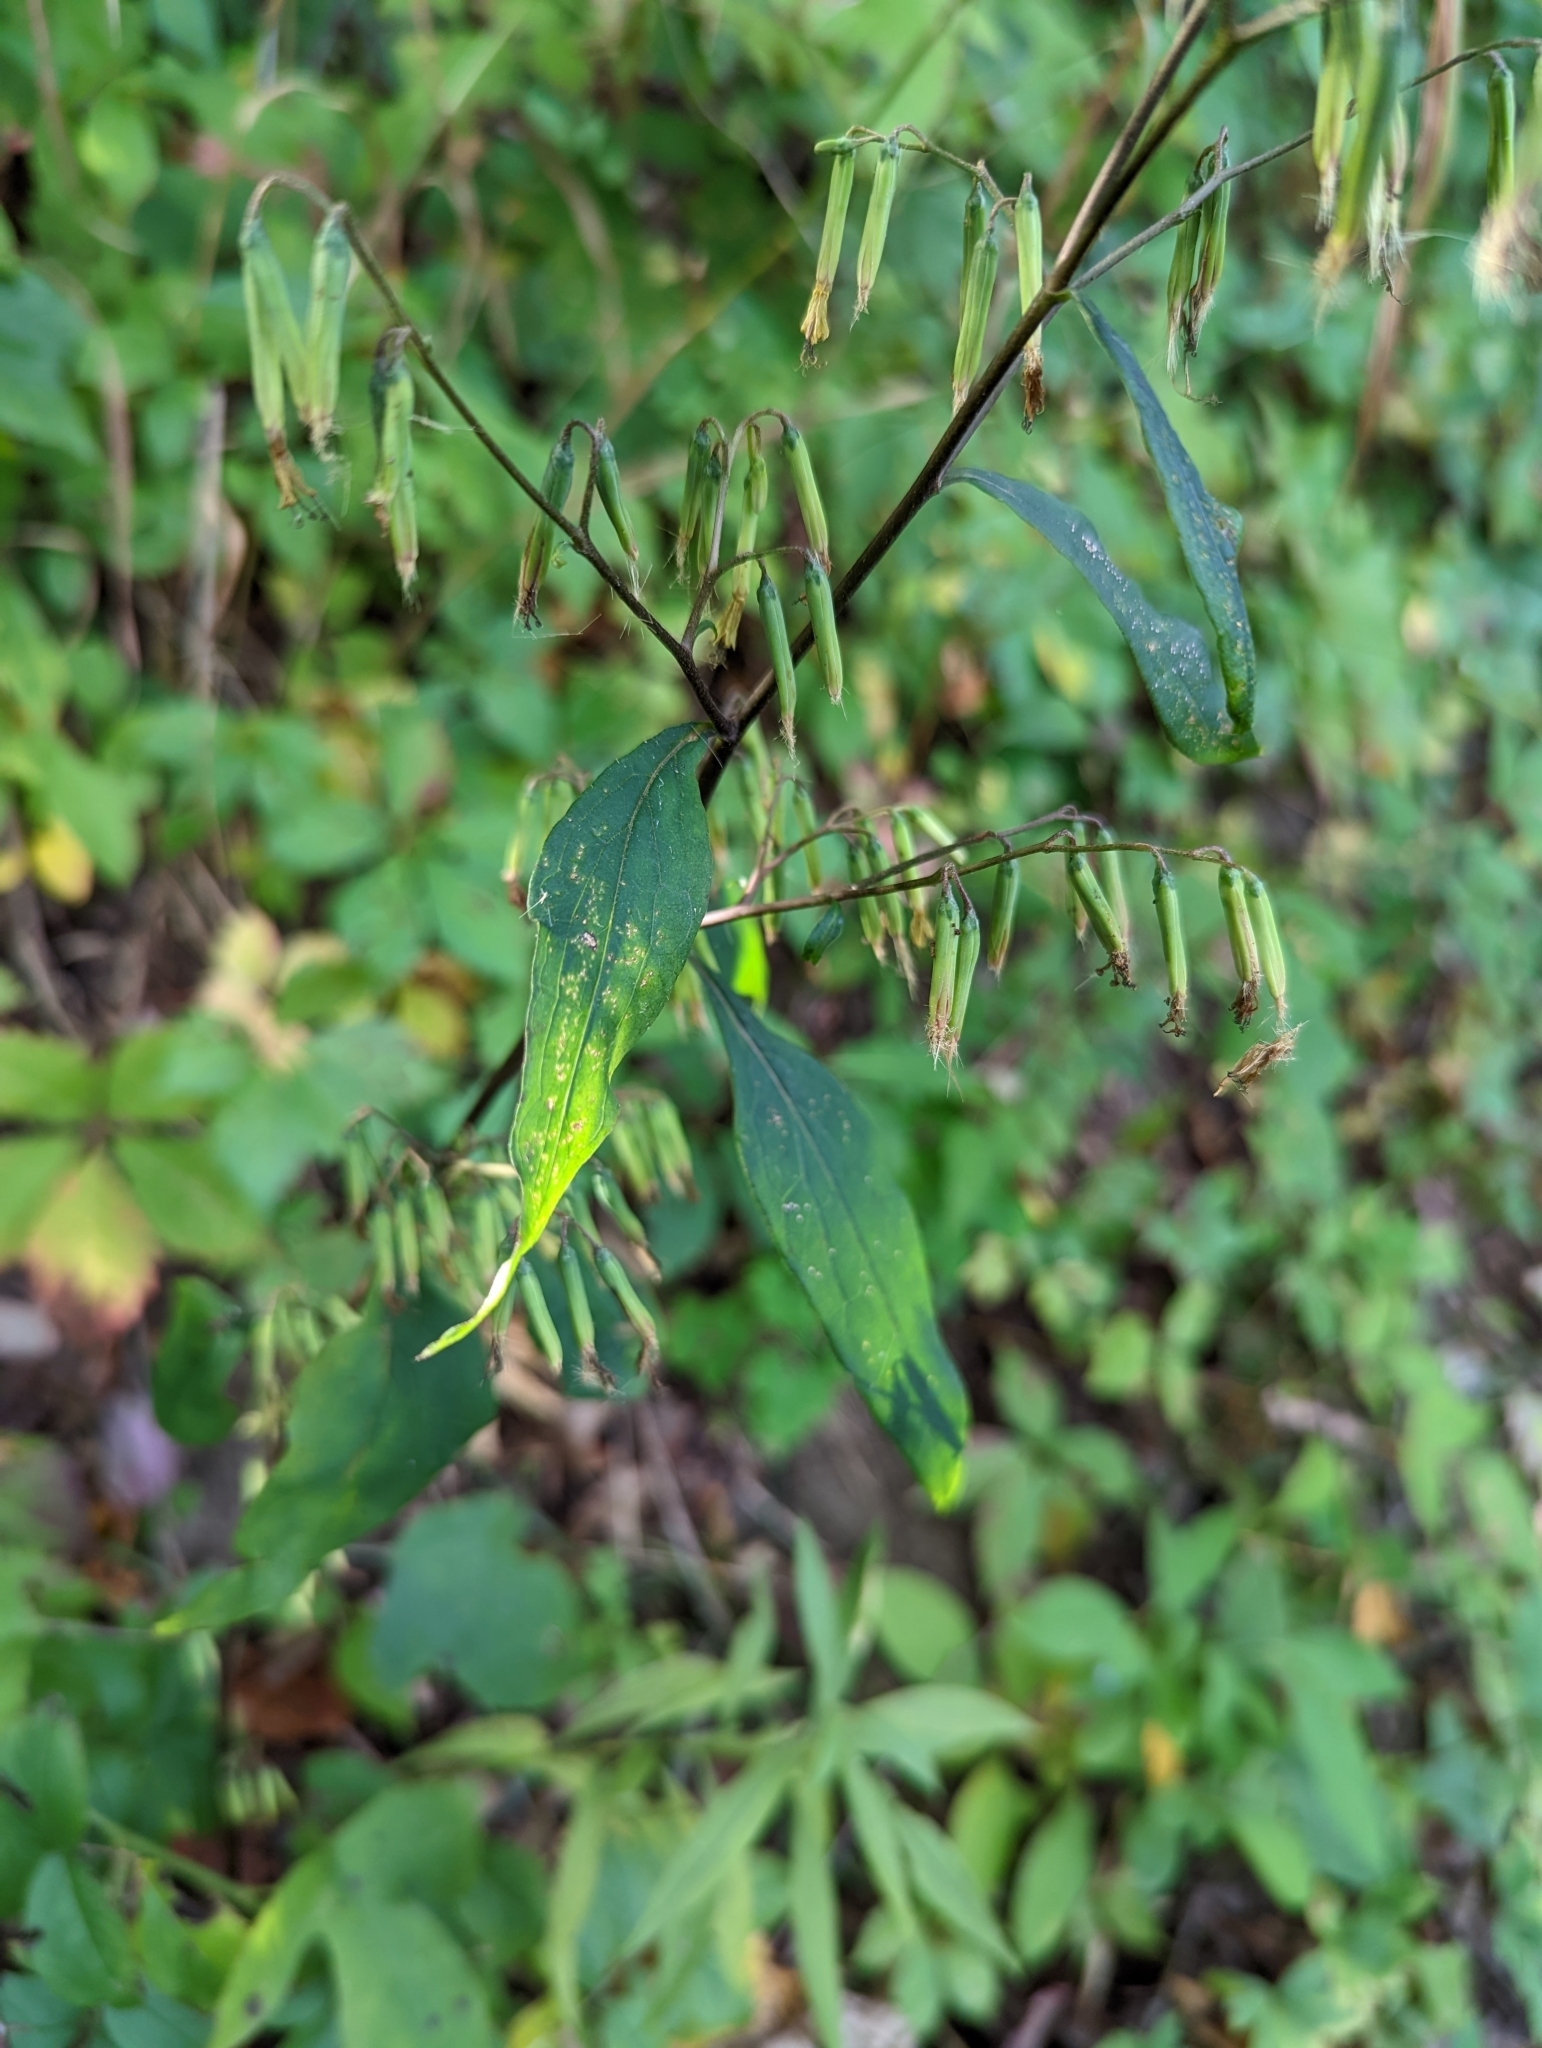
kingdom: Plantae
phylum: Tracheophyta
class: Magnoliopsida
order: Asterales
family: Asteraceae
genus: Nabalus
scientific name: Nabalus altissima
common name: Tall rattlesnakeroot
